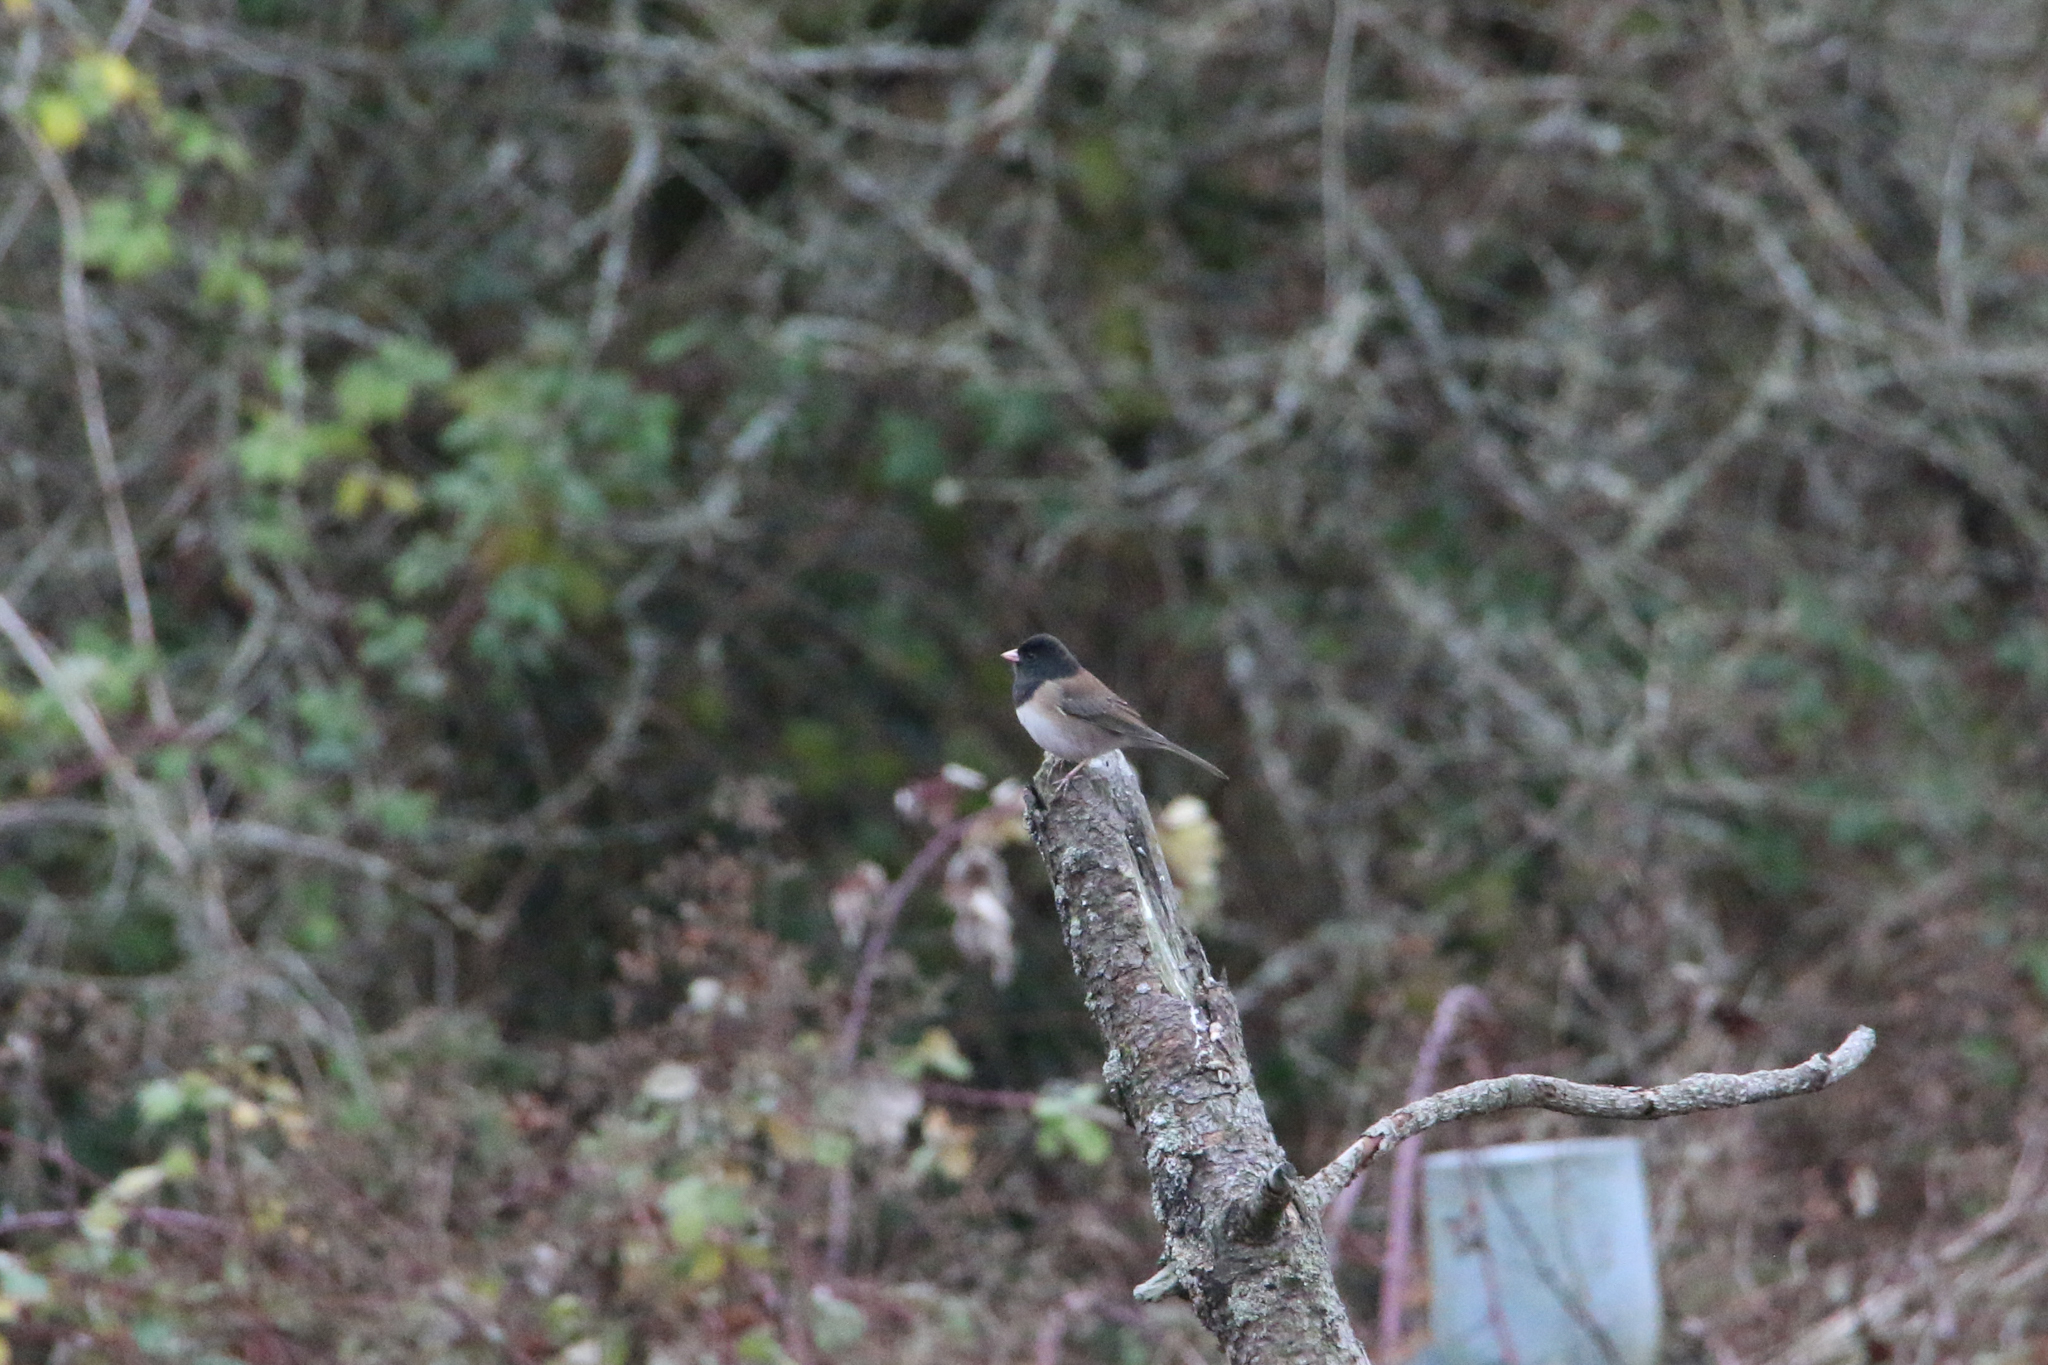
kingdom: Animalia
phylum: Chordata
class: Aves
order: Passeriformes
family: Passerellidae
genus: Junco
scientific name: Junco hyemalis
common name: Dark-eyed junco
